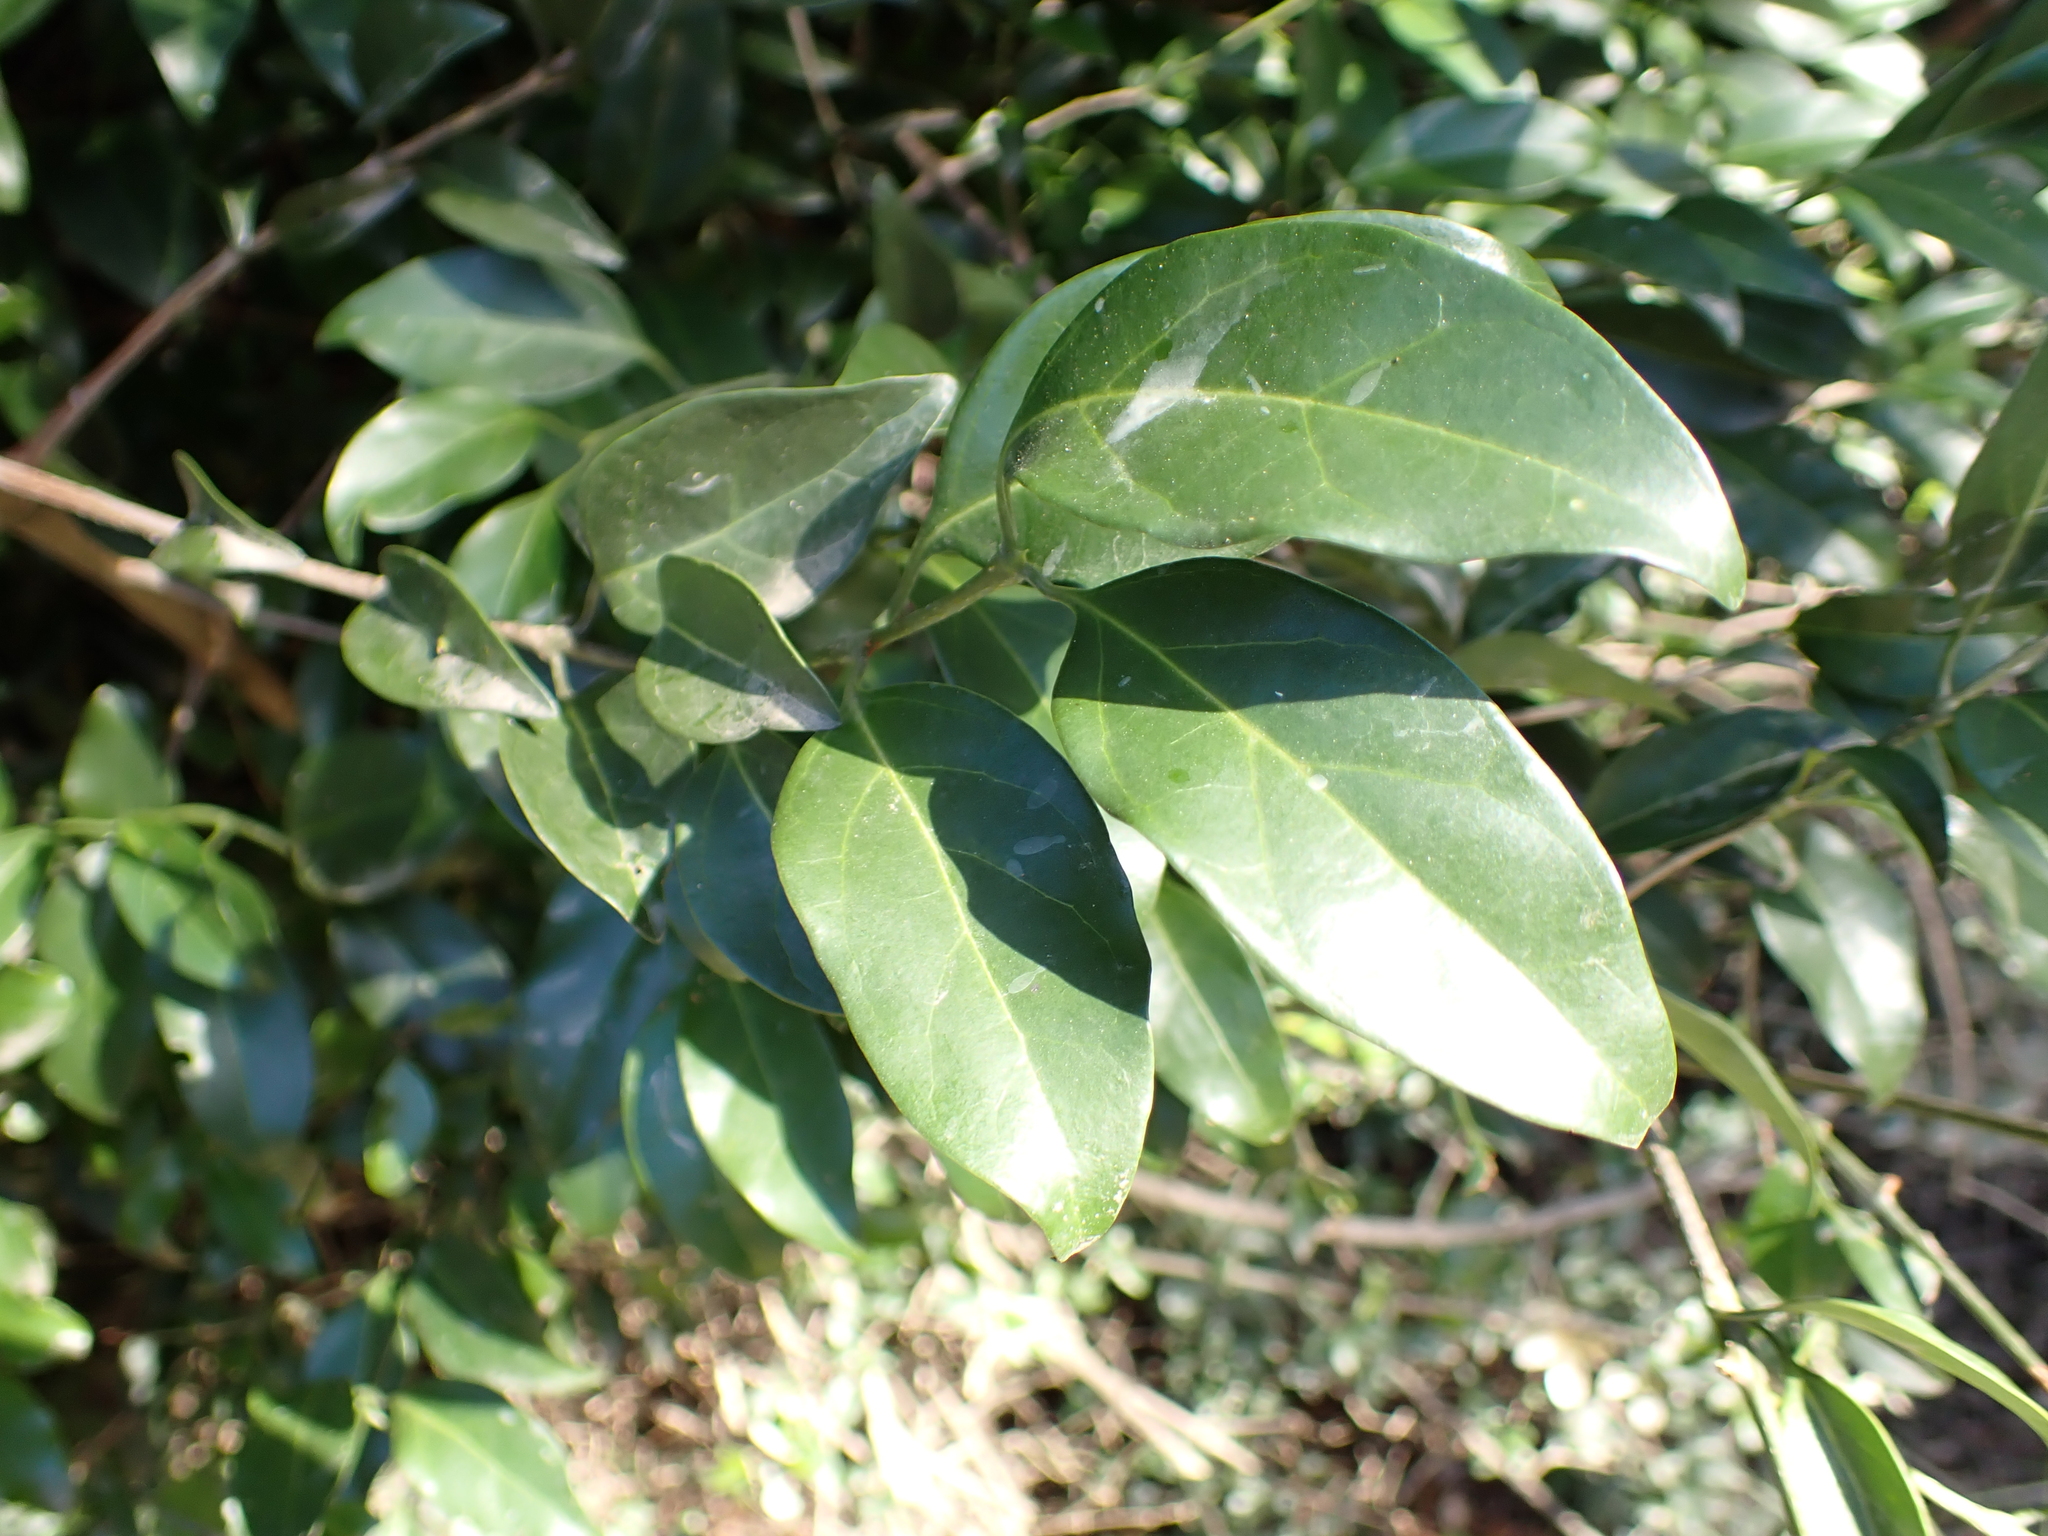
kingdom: Plantae
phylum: Tracheophyta
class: Magnoliopsida
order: Sapindales
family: Anacardiaceae
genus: Schinus
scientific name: Schinus terebinthifolia
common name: Brazilian peppertree
